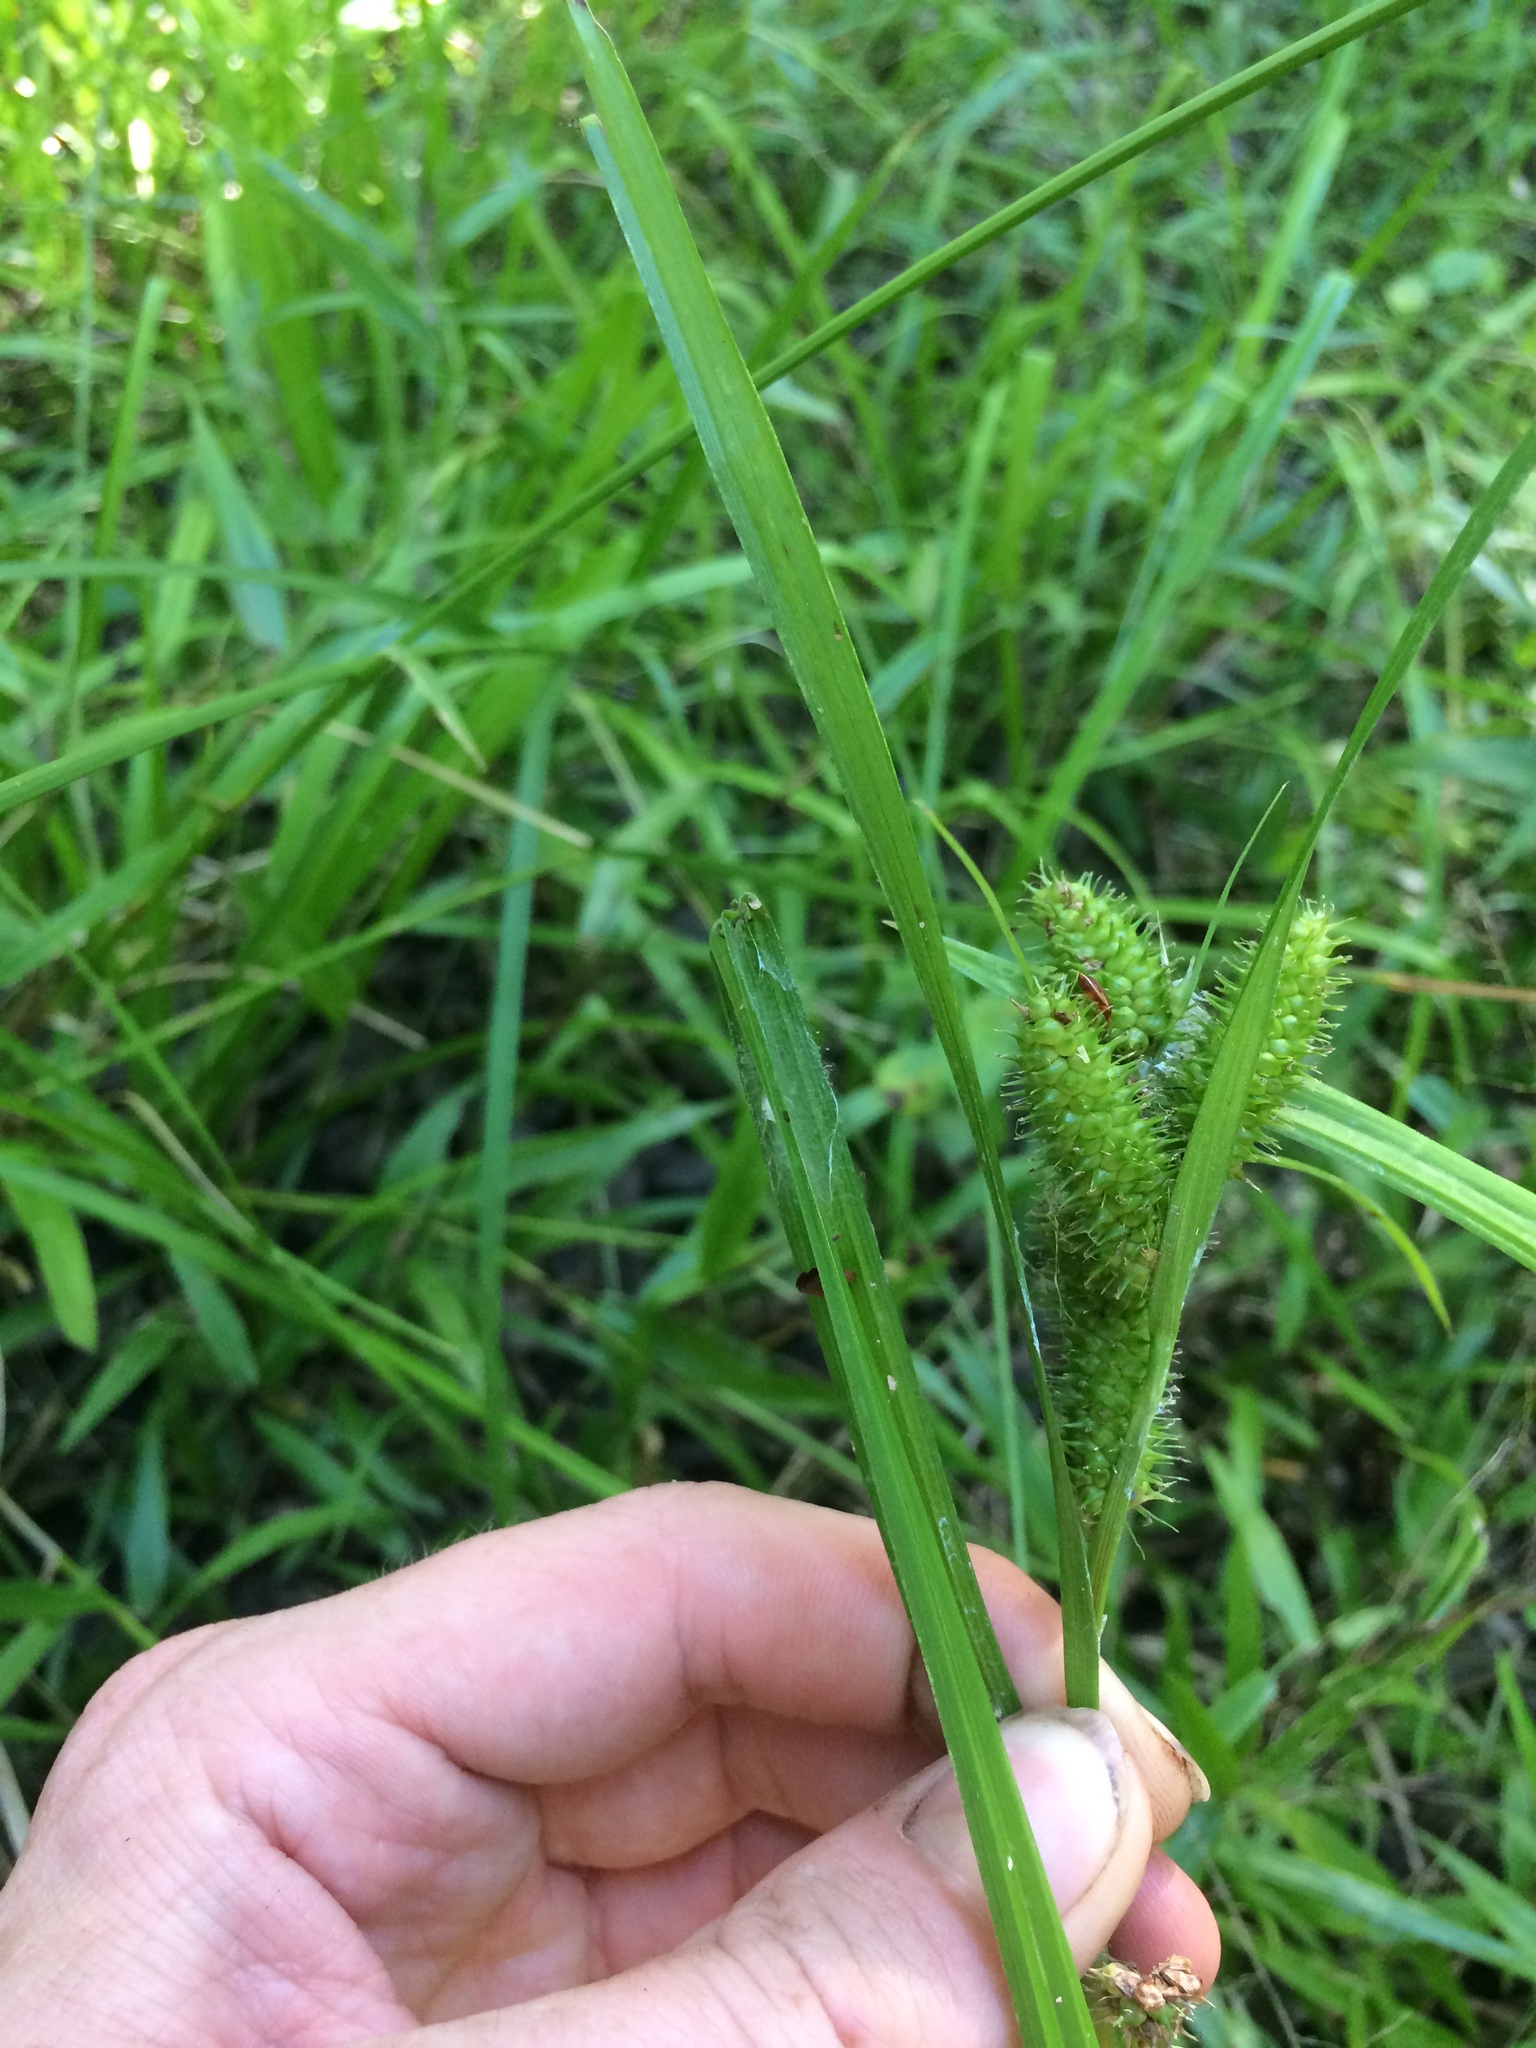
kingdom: Plantae
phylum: Tracheophyta
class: Liliopsida
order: Poales
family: Cyperaceae
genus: Carex
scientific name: Carex aureolensis
